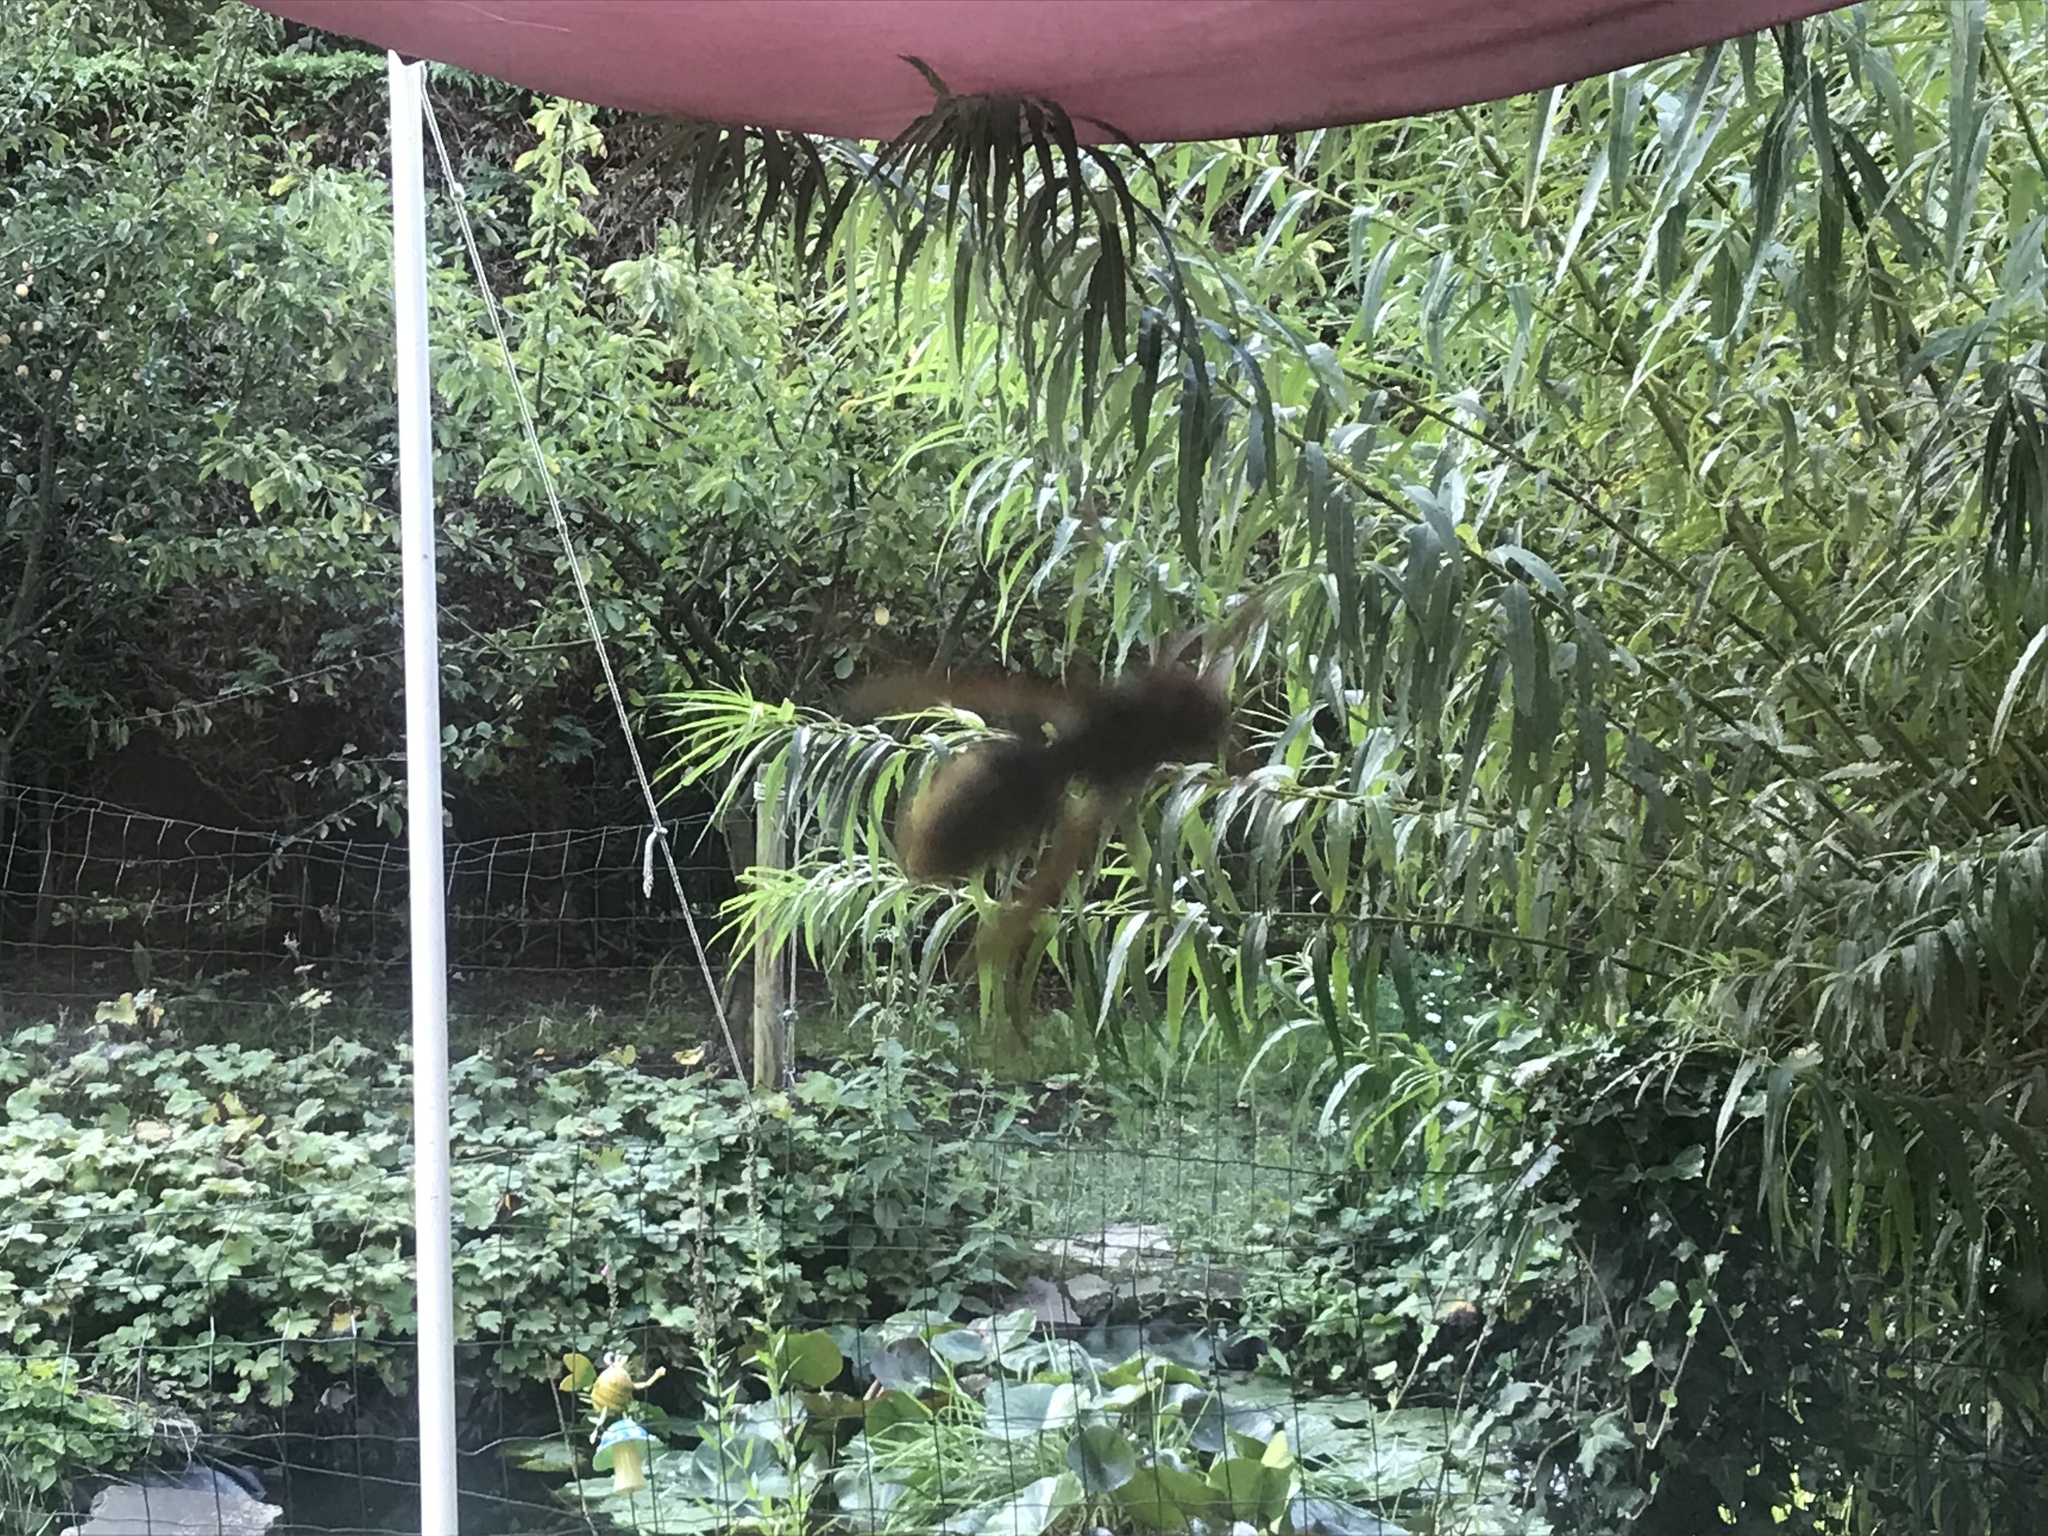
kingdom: Animalia
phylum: Arthropoda
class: Insecta
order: Hymenoptera
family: Vespidae
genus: Vespa
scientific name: Vespa crabro
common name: Hornet
